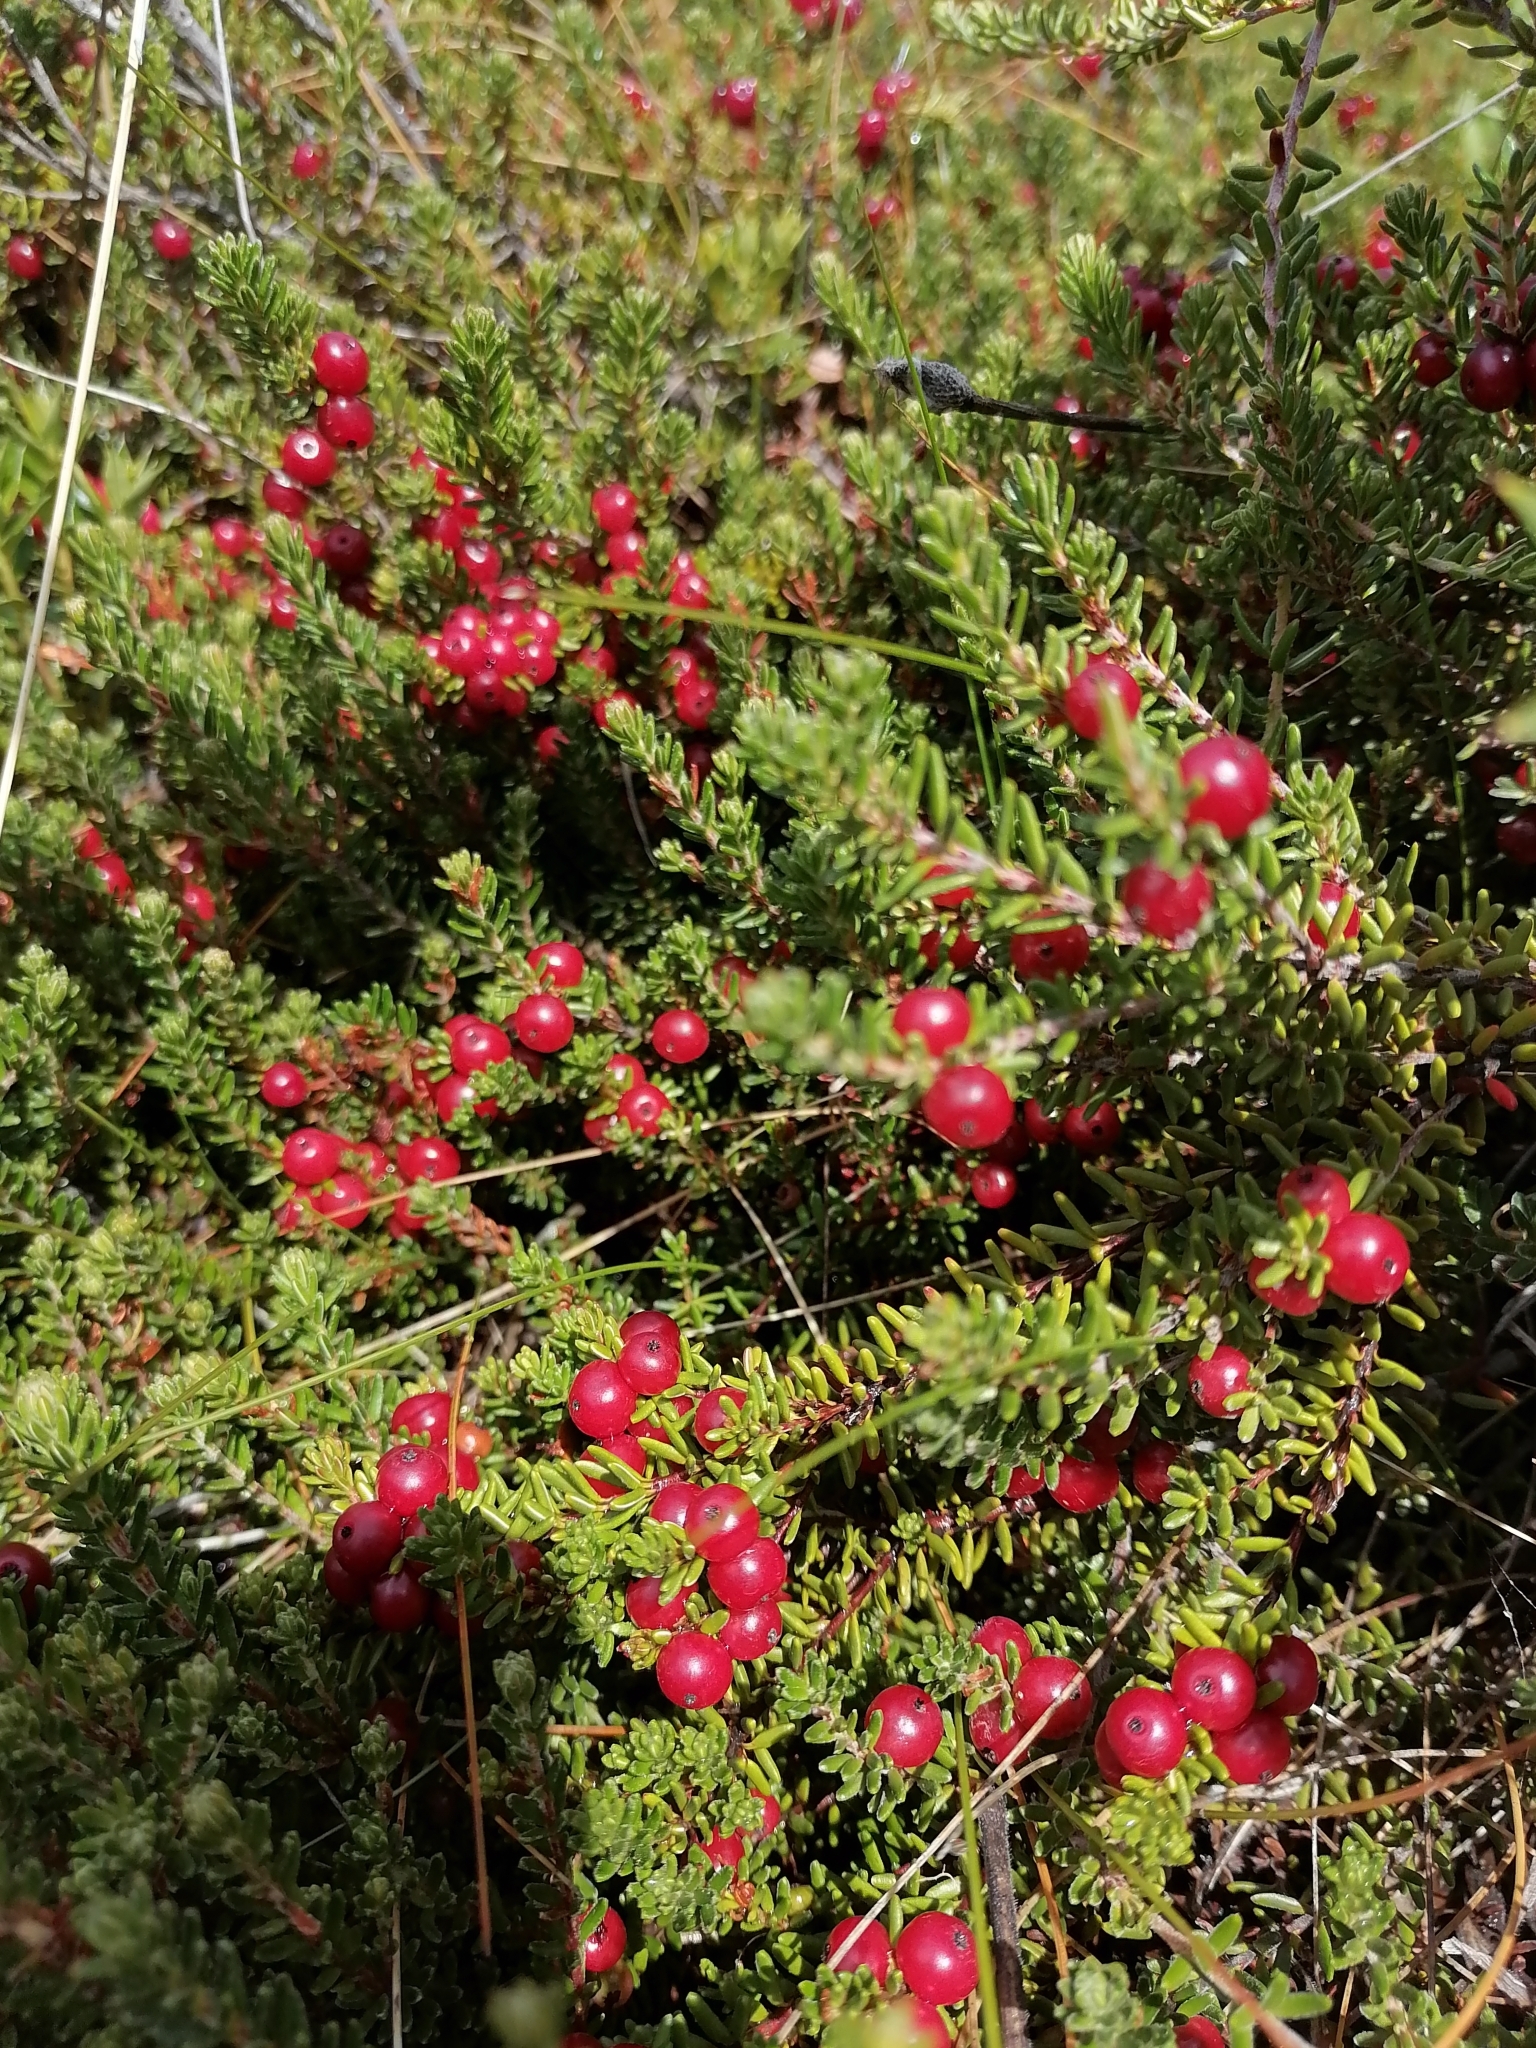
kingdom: Plantae
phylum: Tracheophyta
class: Magnoliopsida
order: Ericales
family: Ericaceae
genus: Empetrum
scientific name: Empetrum rubrum
